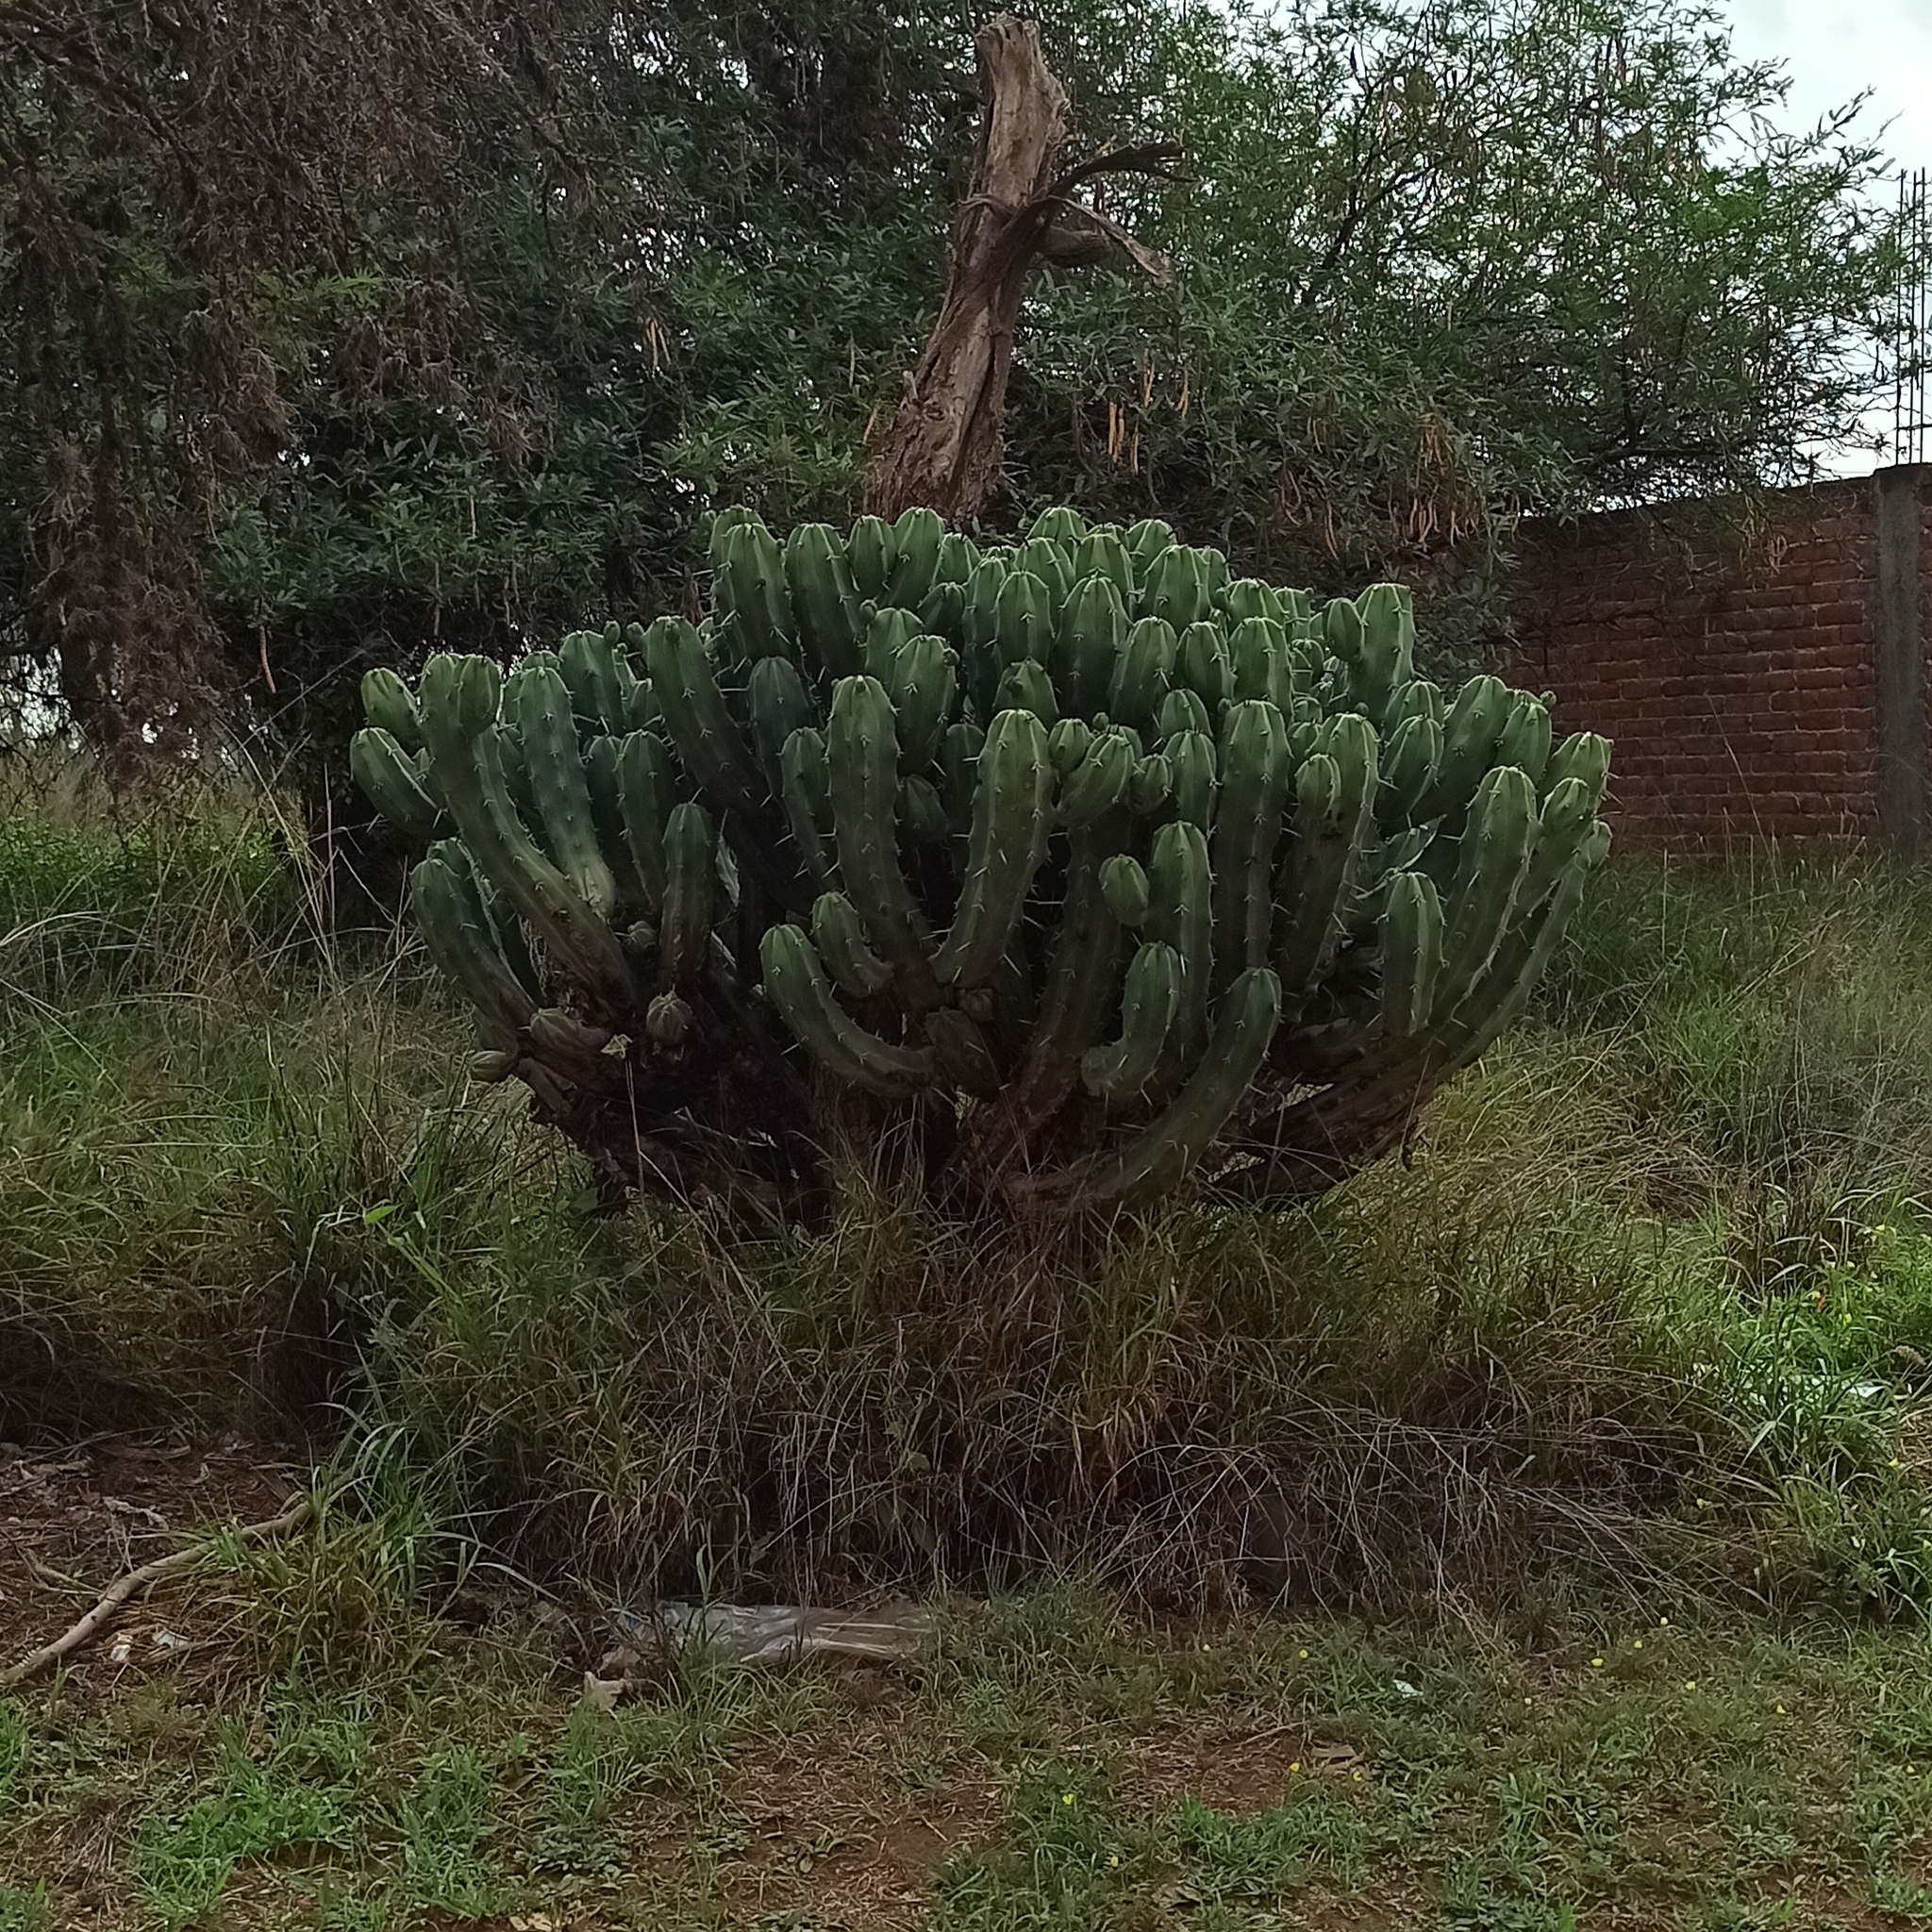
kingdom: Plantae
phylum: Tracheophyta
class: Magnoliopsida
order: Caryophyllales
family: Cactaceae
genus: Myrtillocactus
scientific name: Myrtillocactus geometrizans
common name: Bilberry cactus
